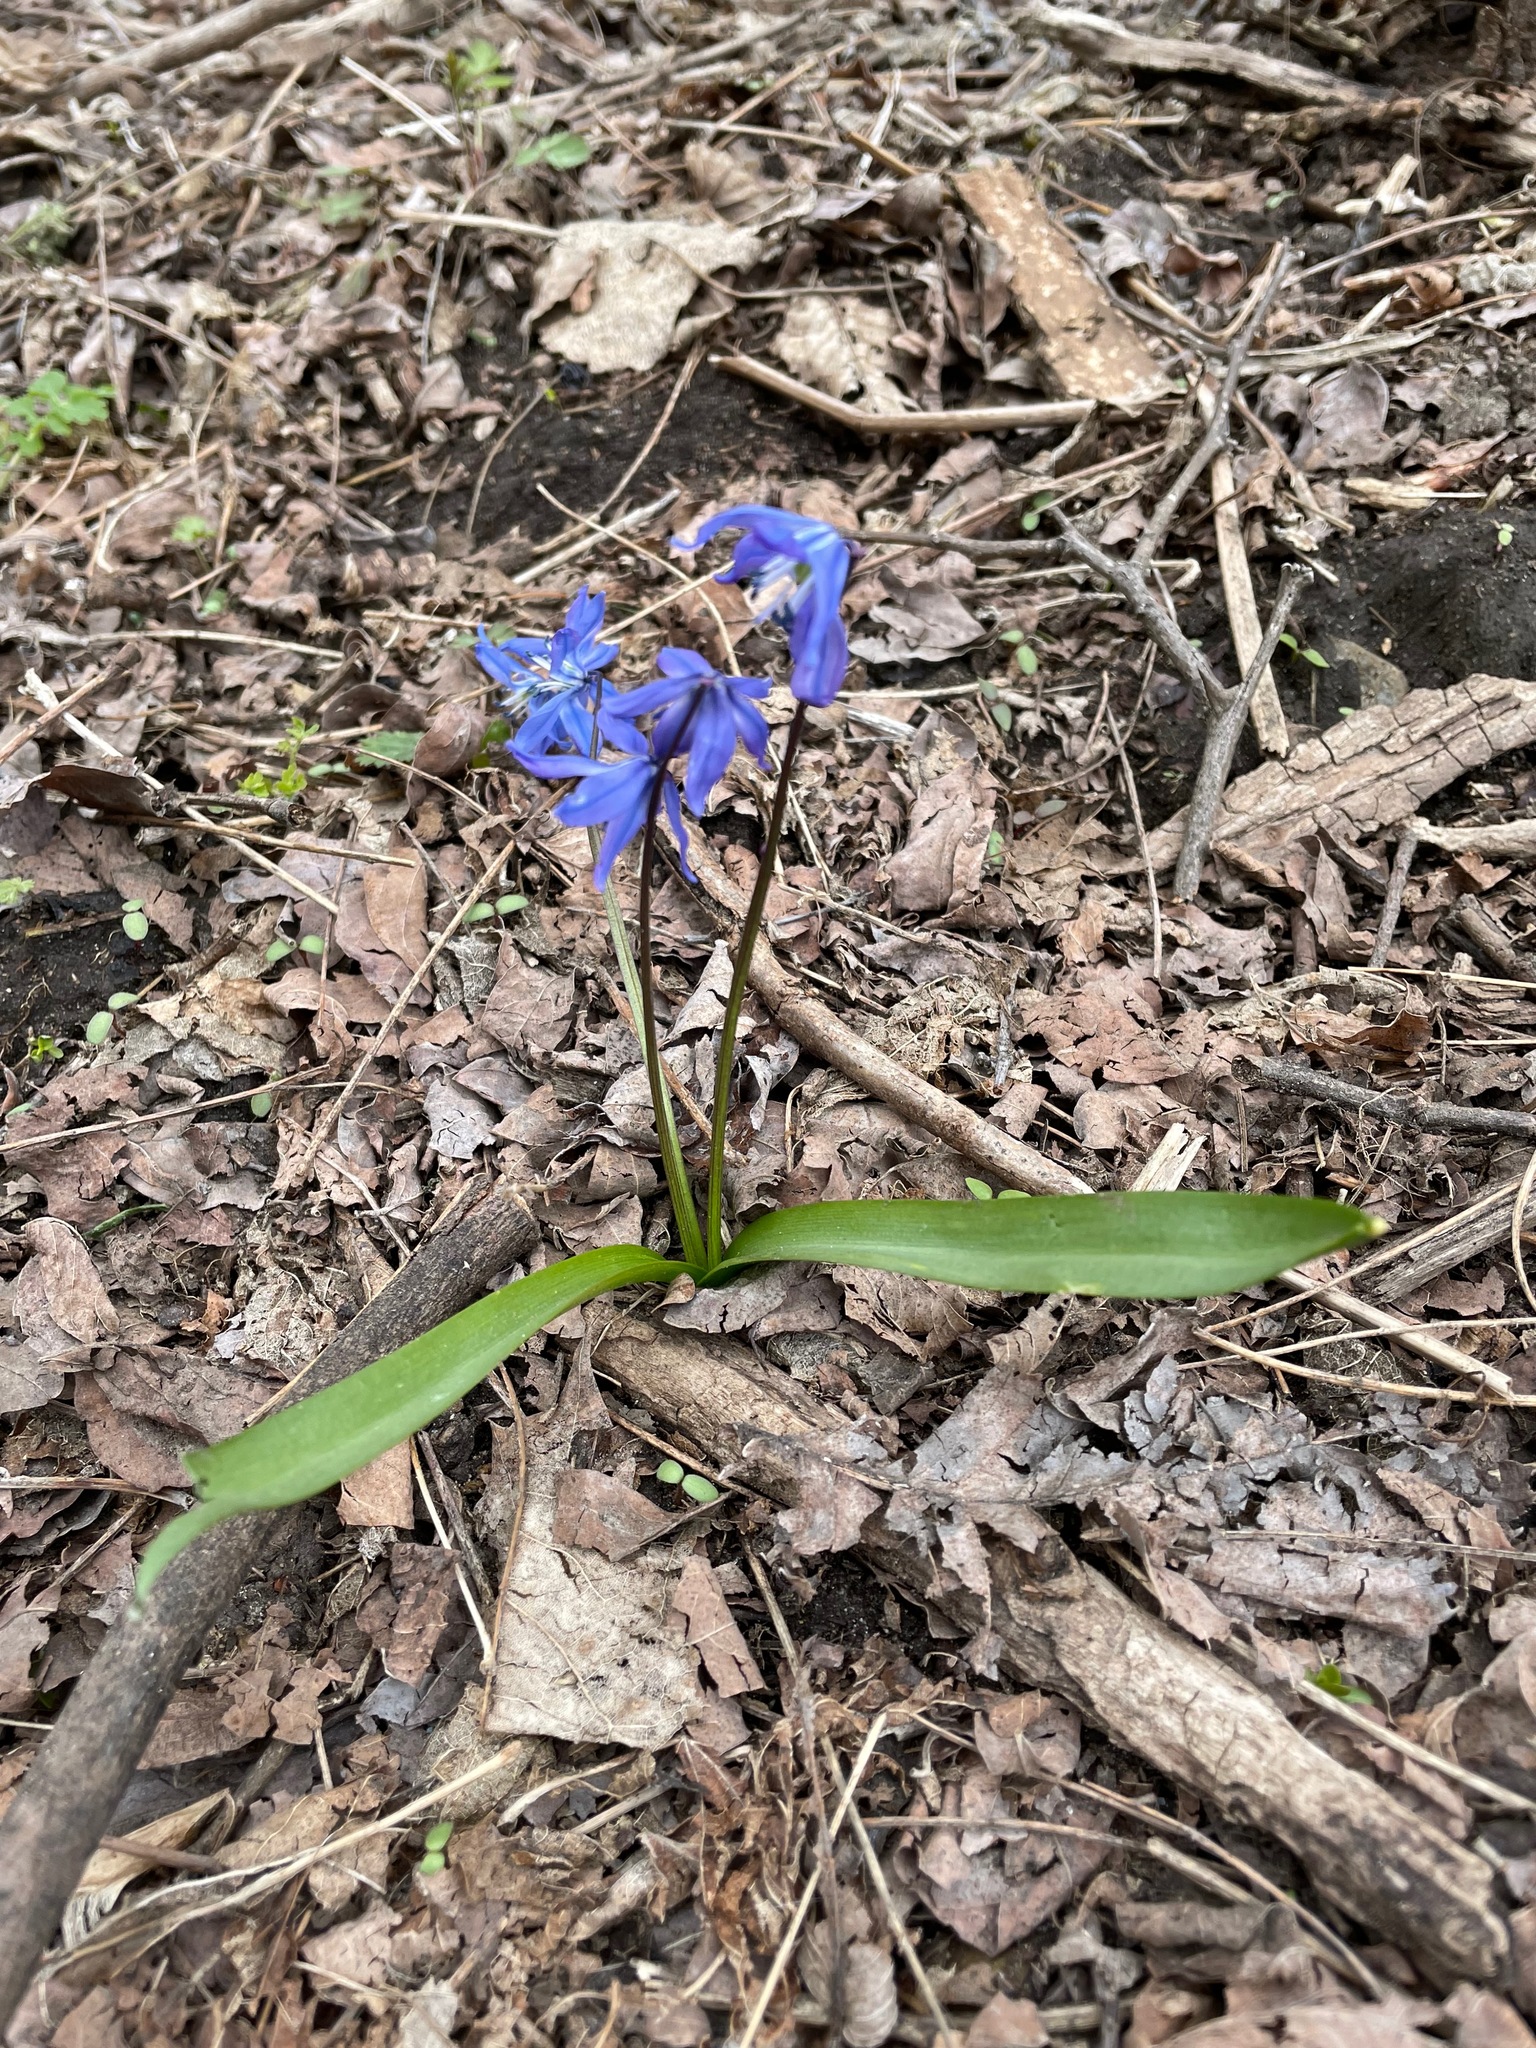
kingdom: Plantae
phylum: Tracheophyta
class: Liliopsida
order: Asparagales
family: Asparagaceae
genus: Scilla
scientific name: Scilla siberica
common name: Siberian squill
